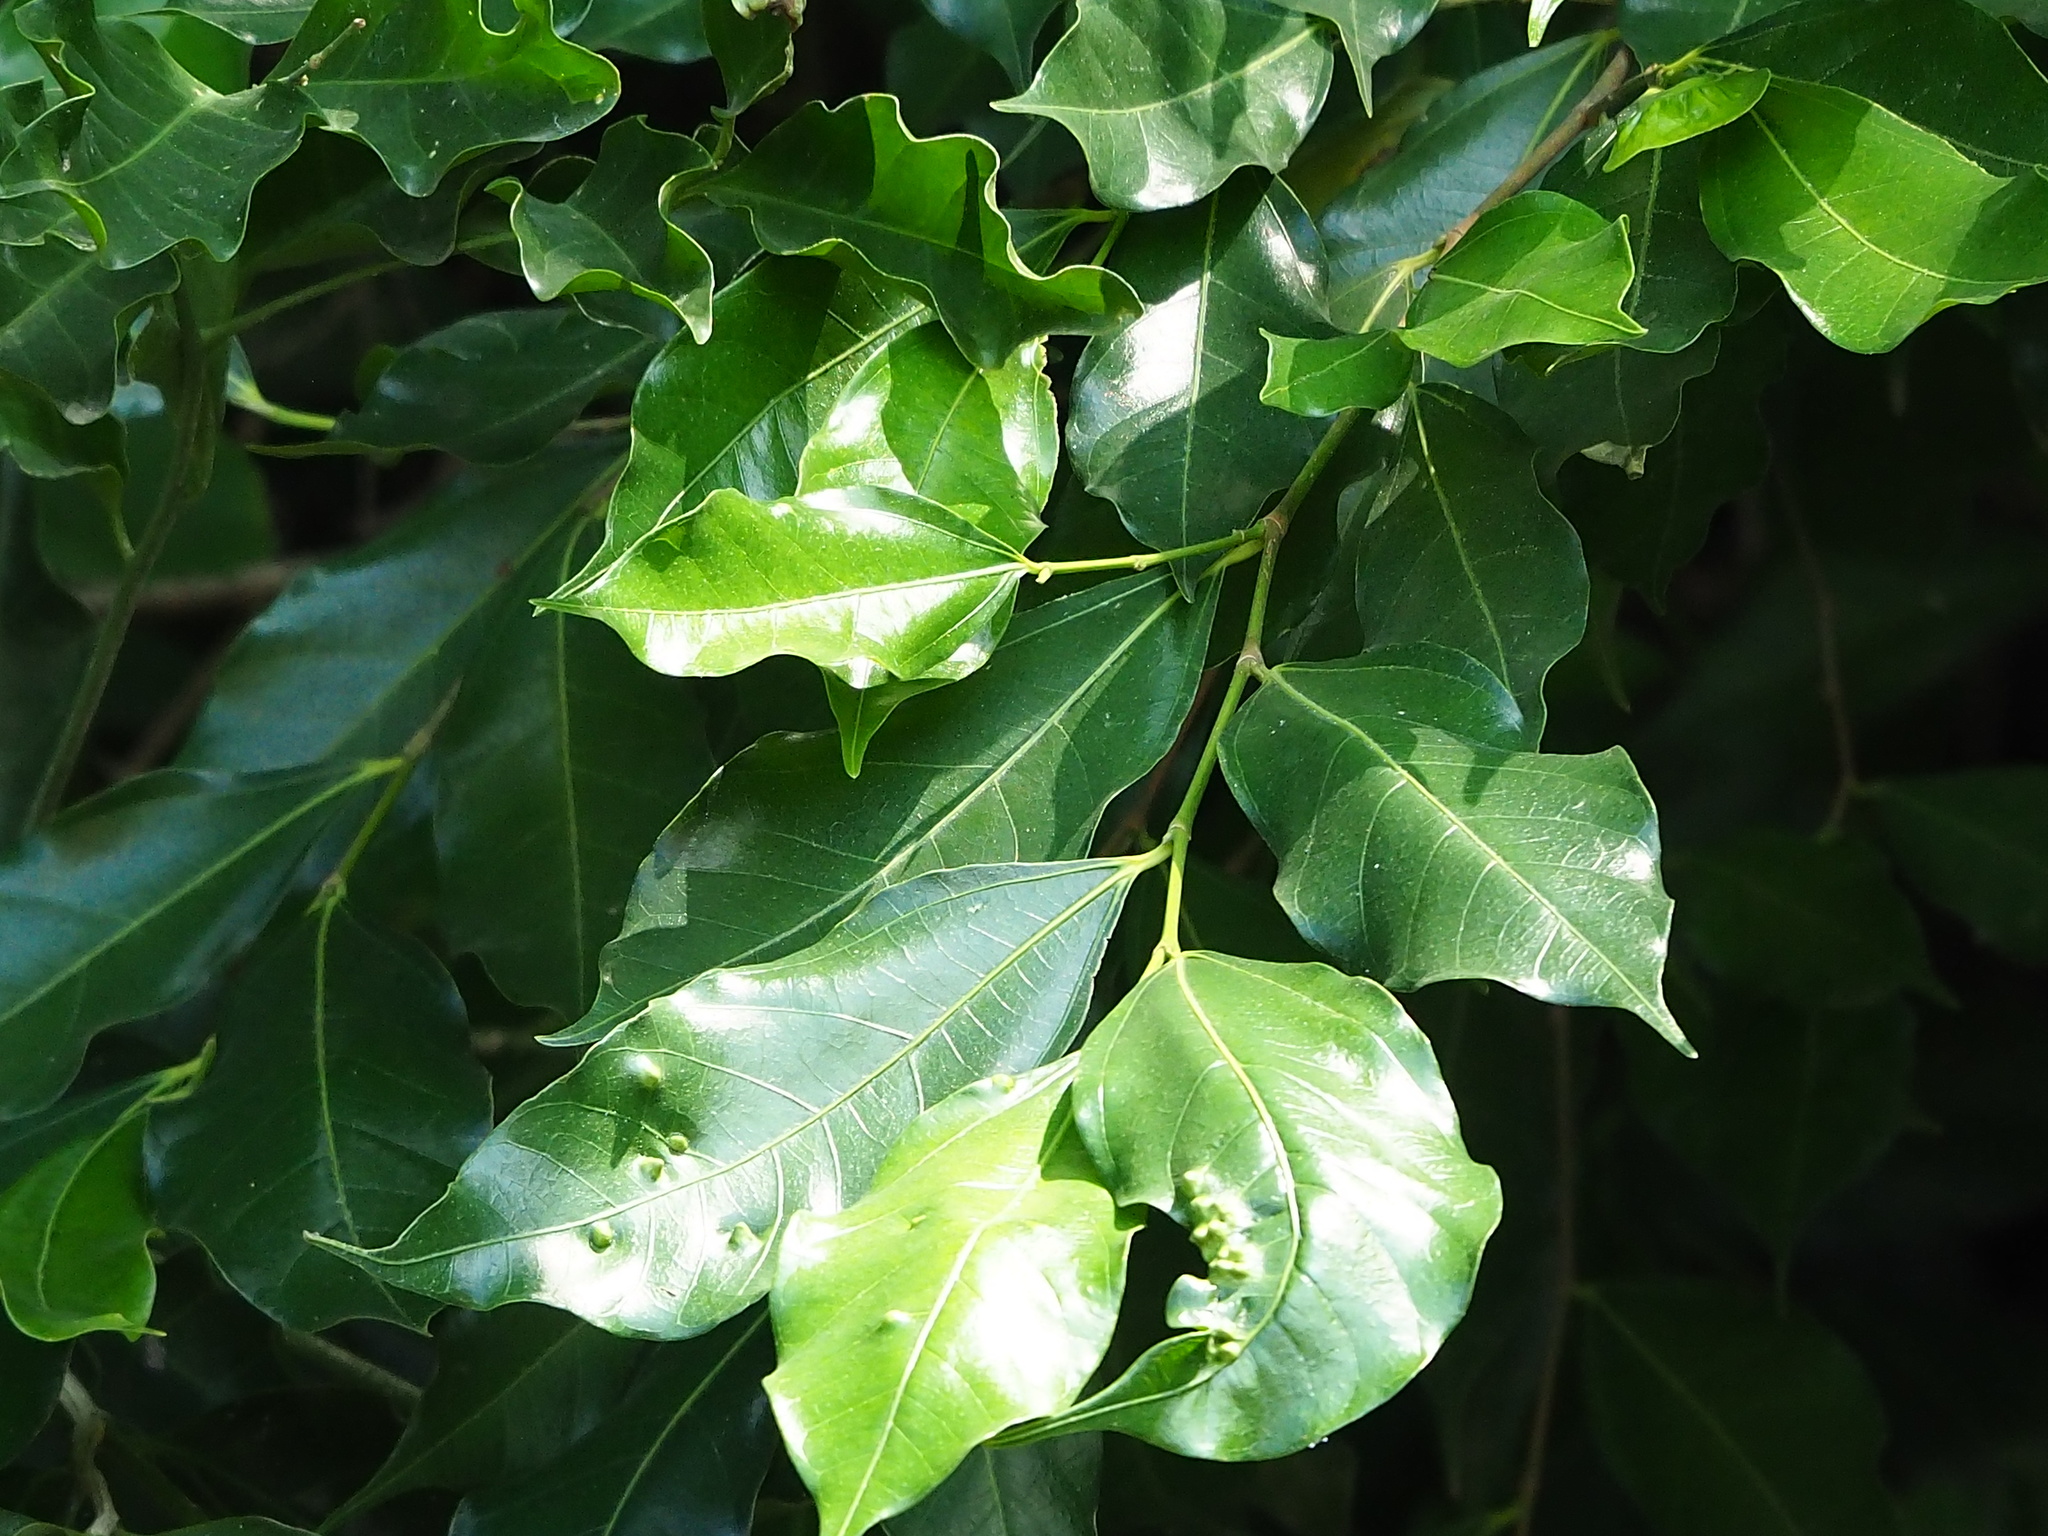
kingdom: Plantae
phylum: Tracheophyta
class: Magnoliopsida
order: Santalales
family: Opiliaceae
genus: Champereia
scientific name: Champereia manillana
